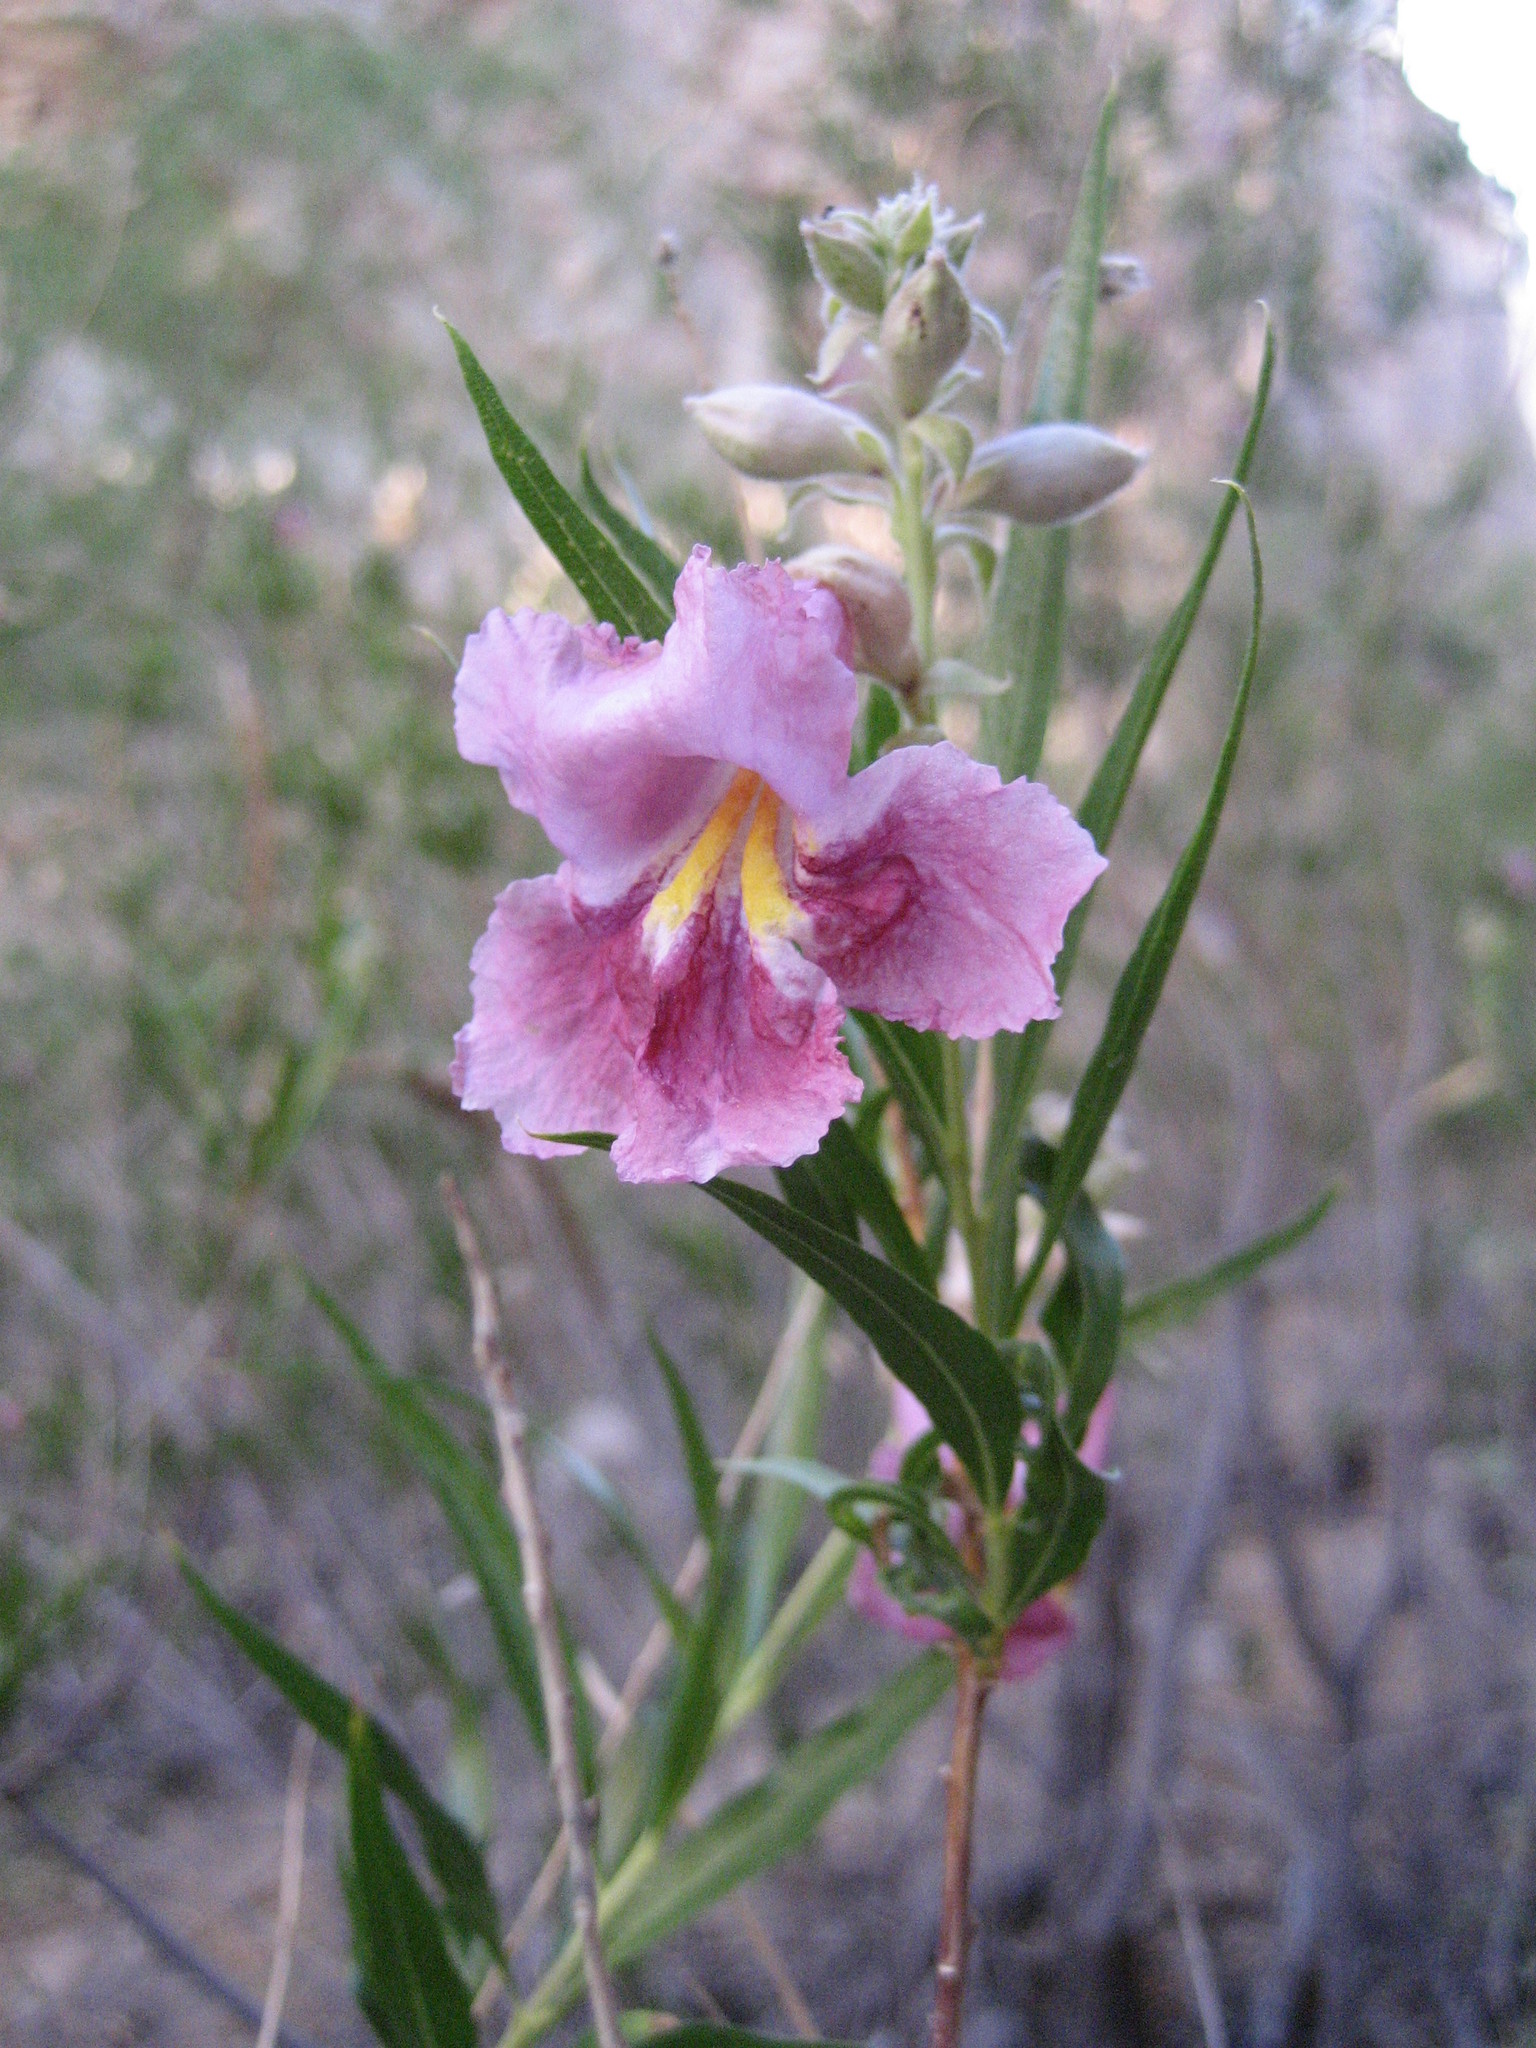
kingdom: Plantae
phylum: Tracheophyta
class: Magnoliopsida
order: Lamiales
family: Bignoniaceae
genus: Chilopsis
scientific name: Chilopsis linearis
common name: Desert-willow
